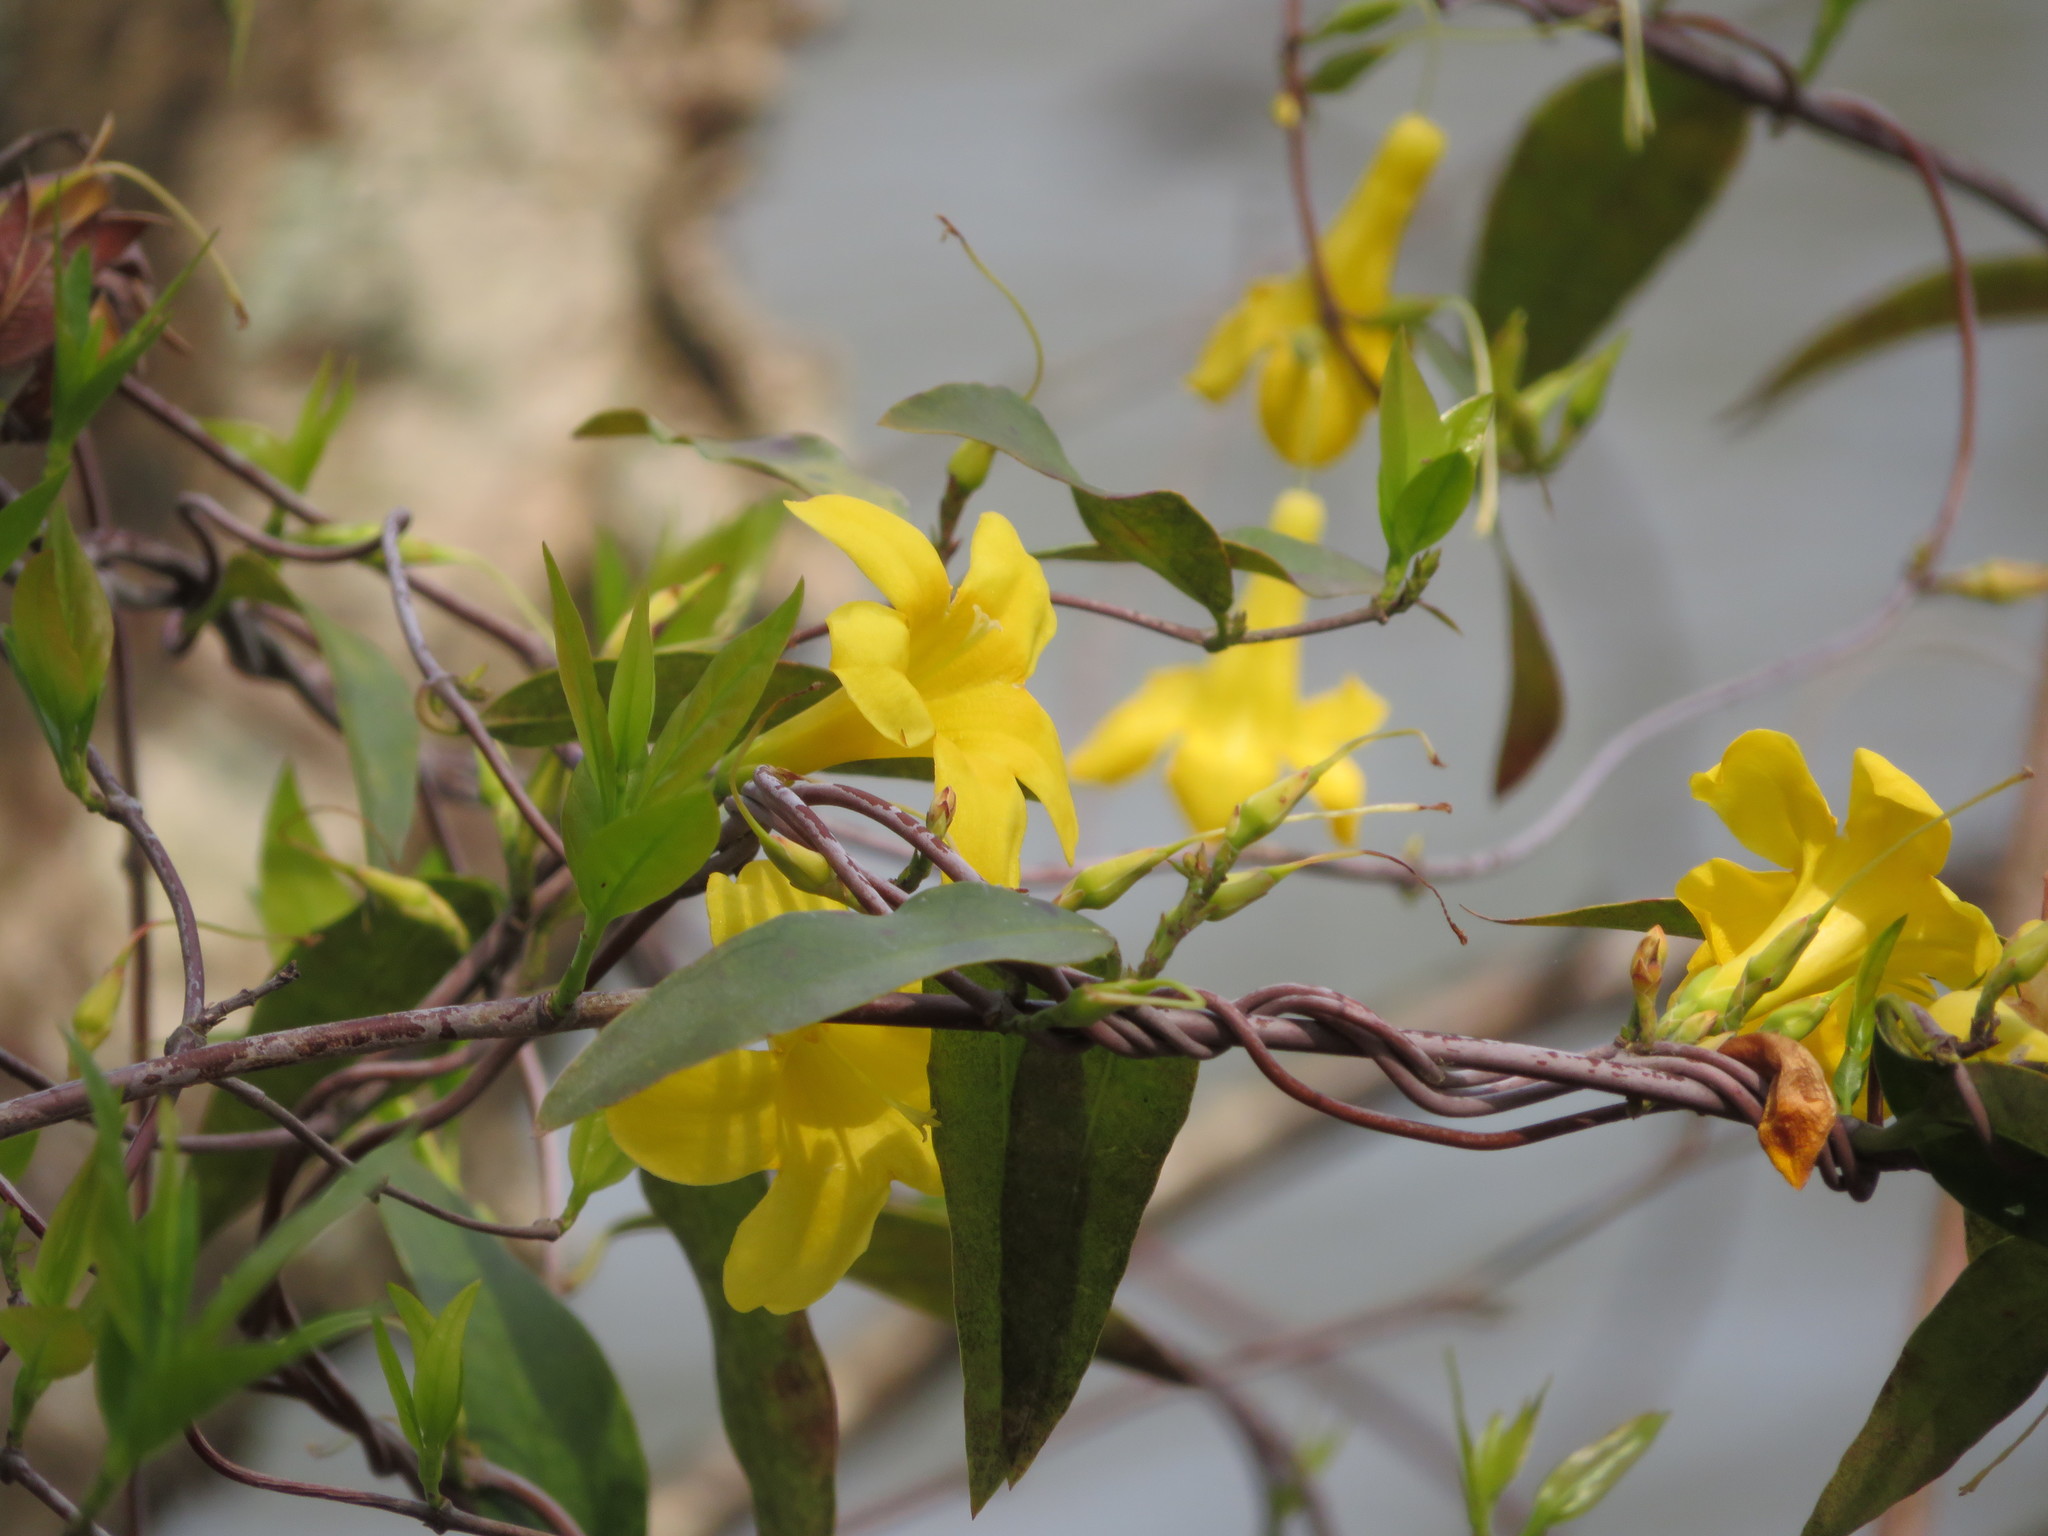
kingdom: Plantae
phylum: Tracheophyta
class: Magnoliopsida
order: Gentianales
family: Gelsemiaceae
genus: Gelsemium
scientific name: Gelsemium sempervirens
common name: Carolina-jasmine
